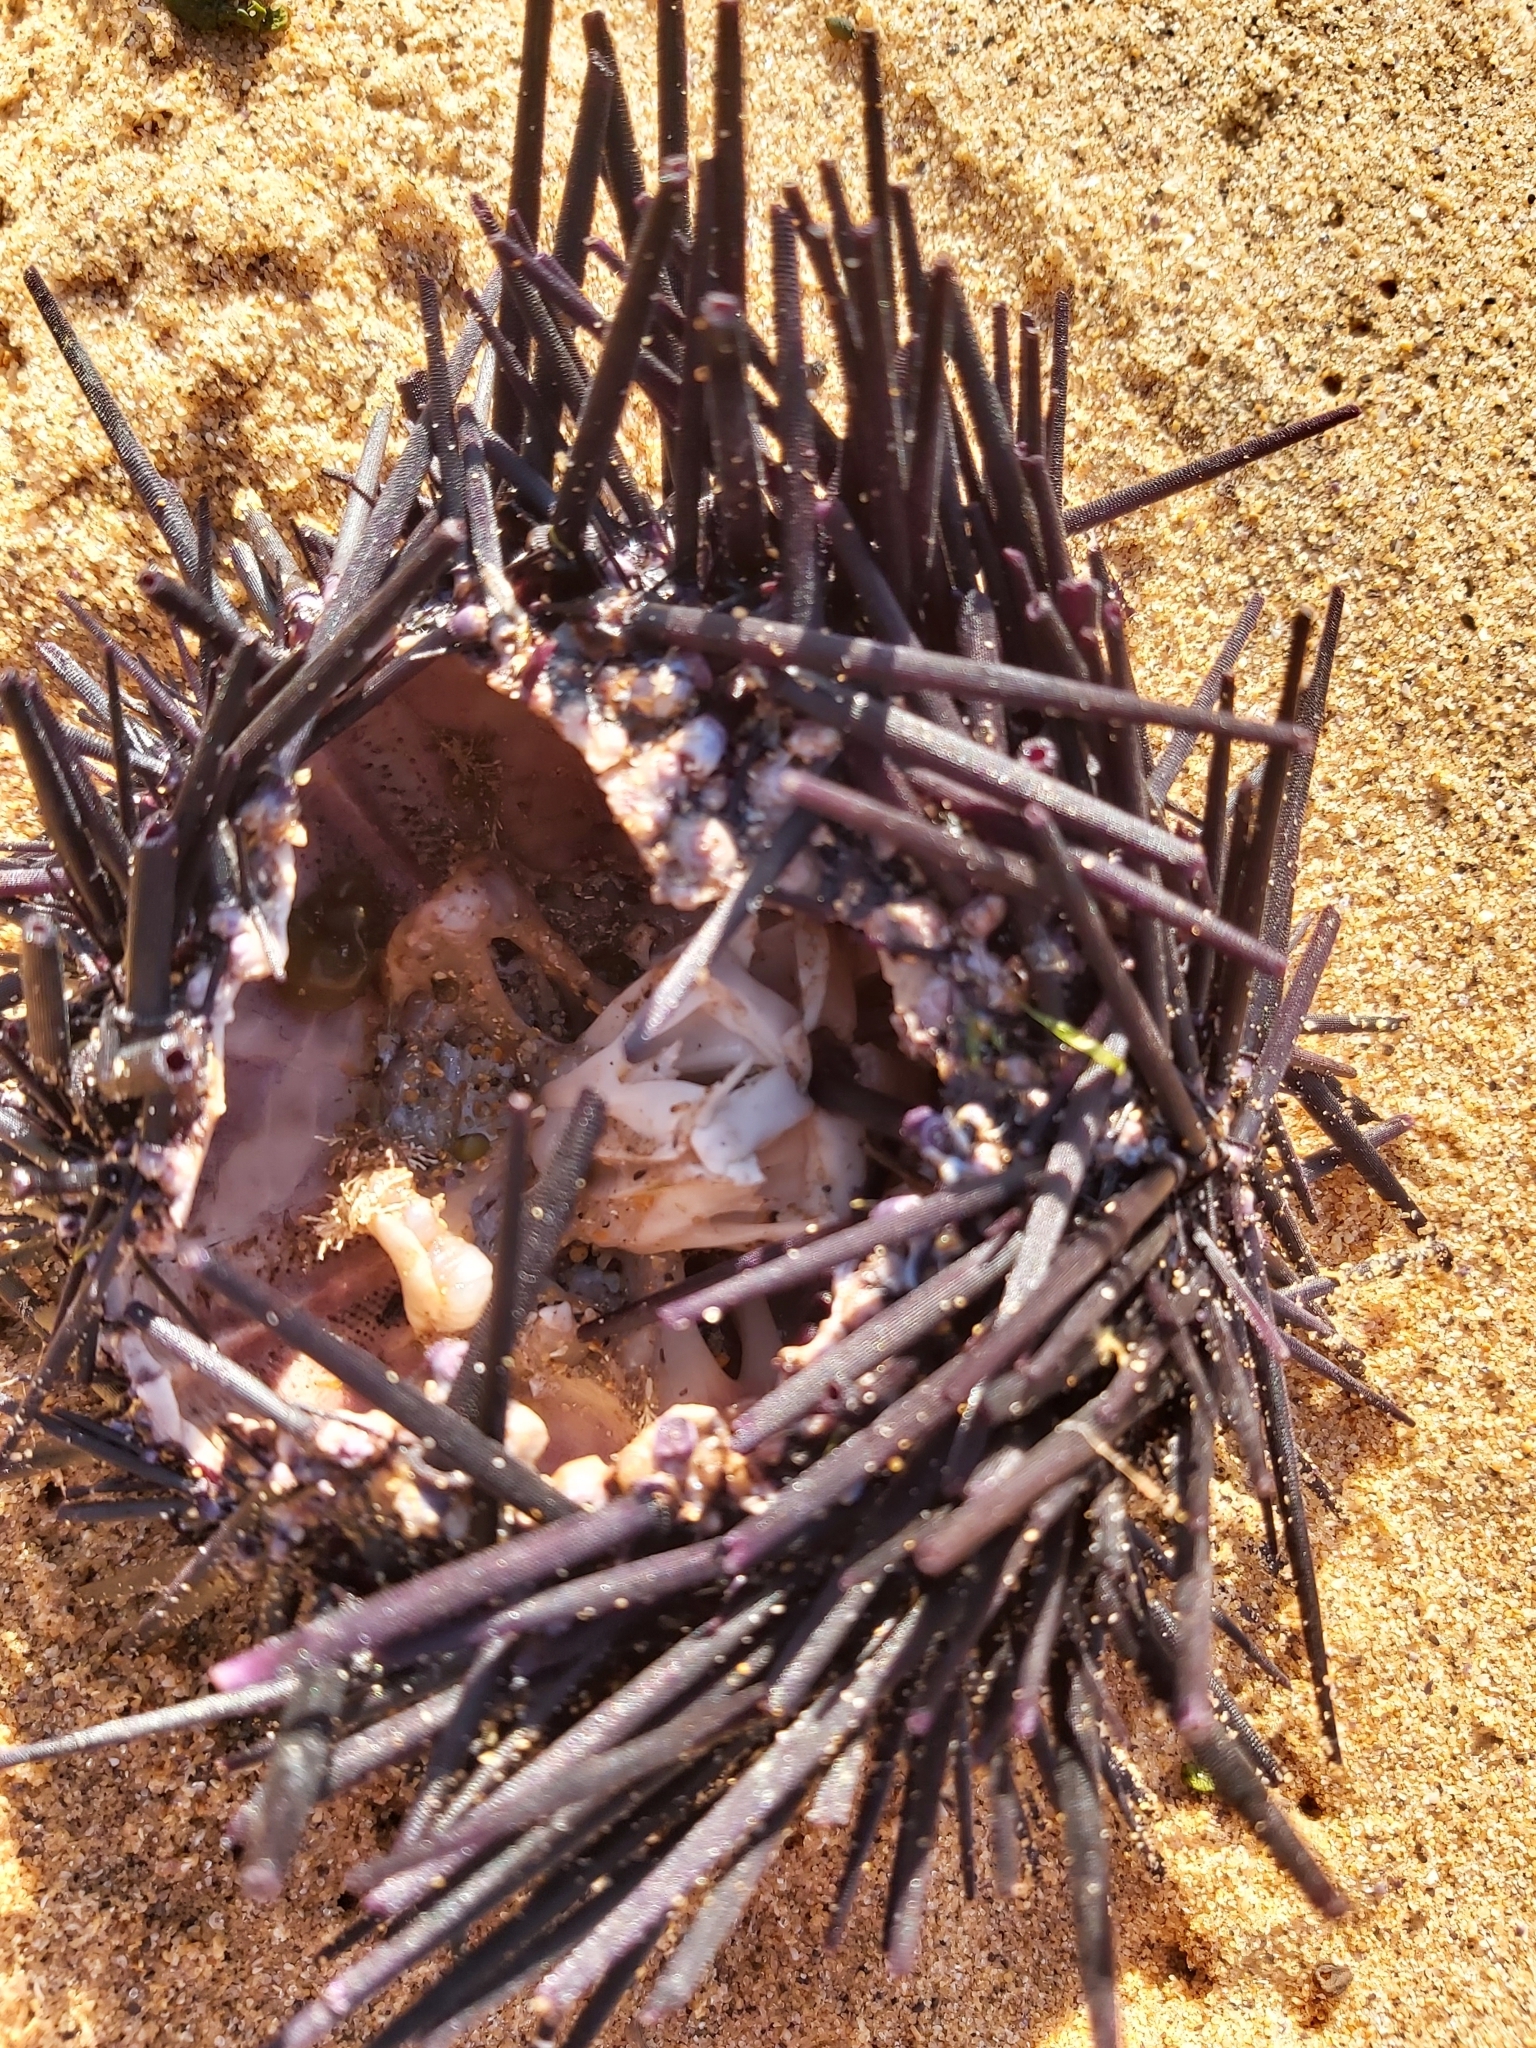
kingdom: Animalia
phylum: Echinodermata
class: Echinoidea
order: Diadematoida
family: Diadematidae
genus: Centrostephanus
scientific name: Centrostephanus rodgersii
